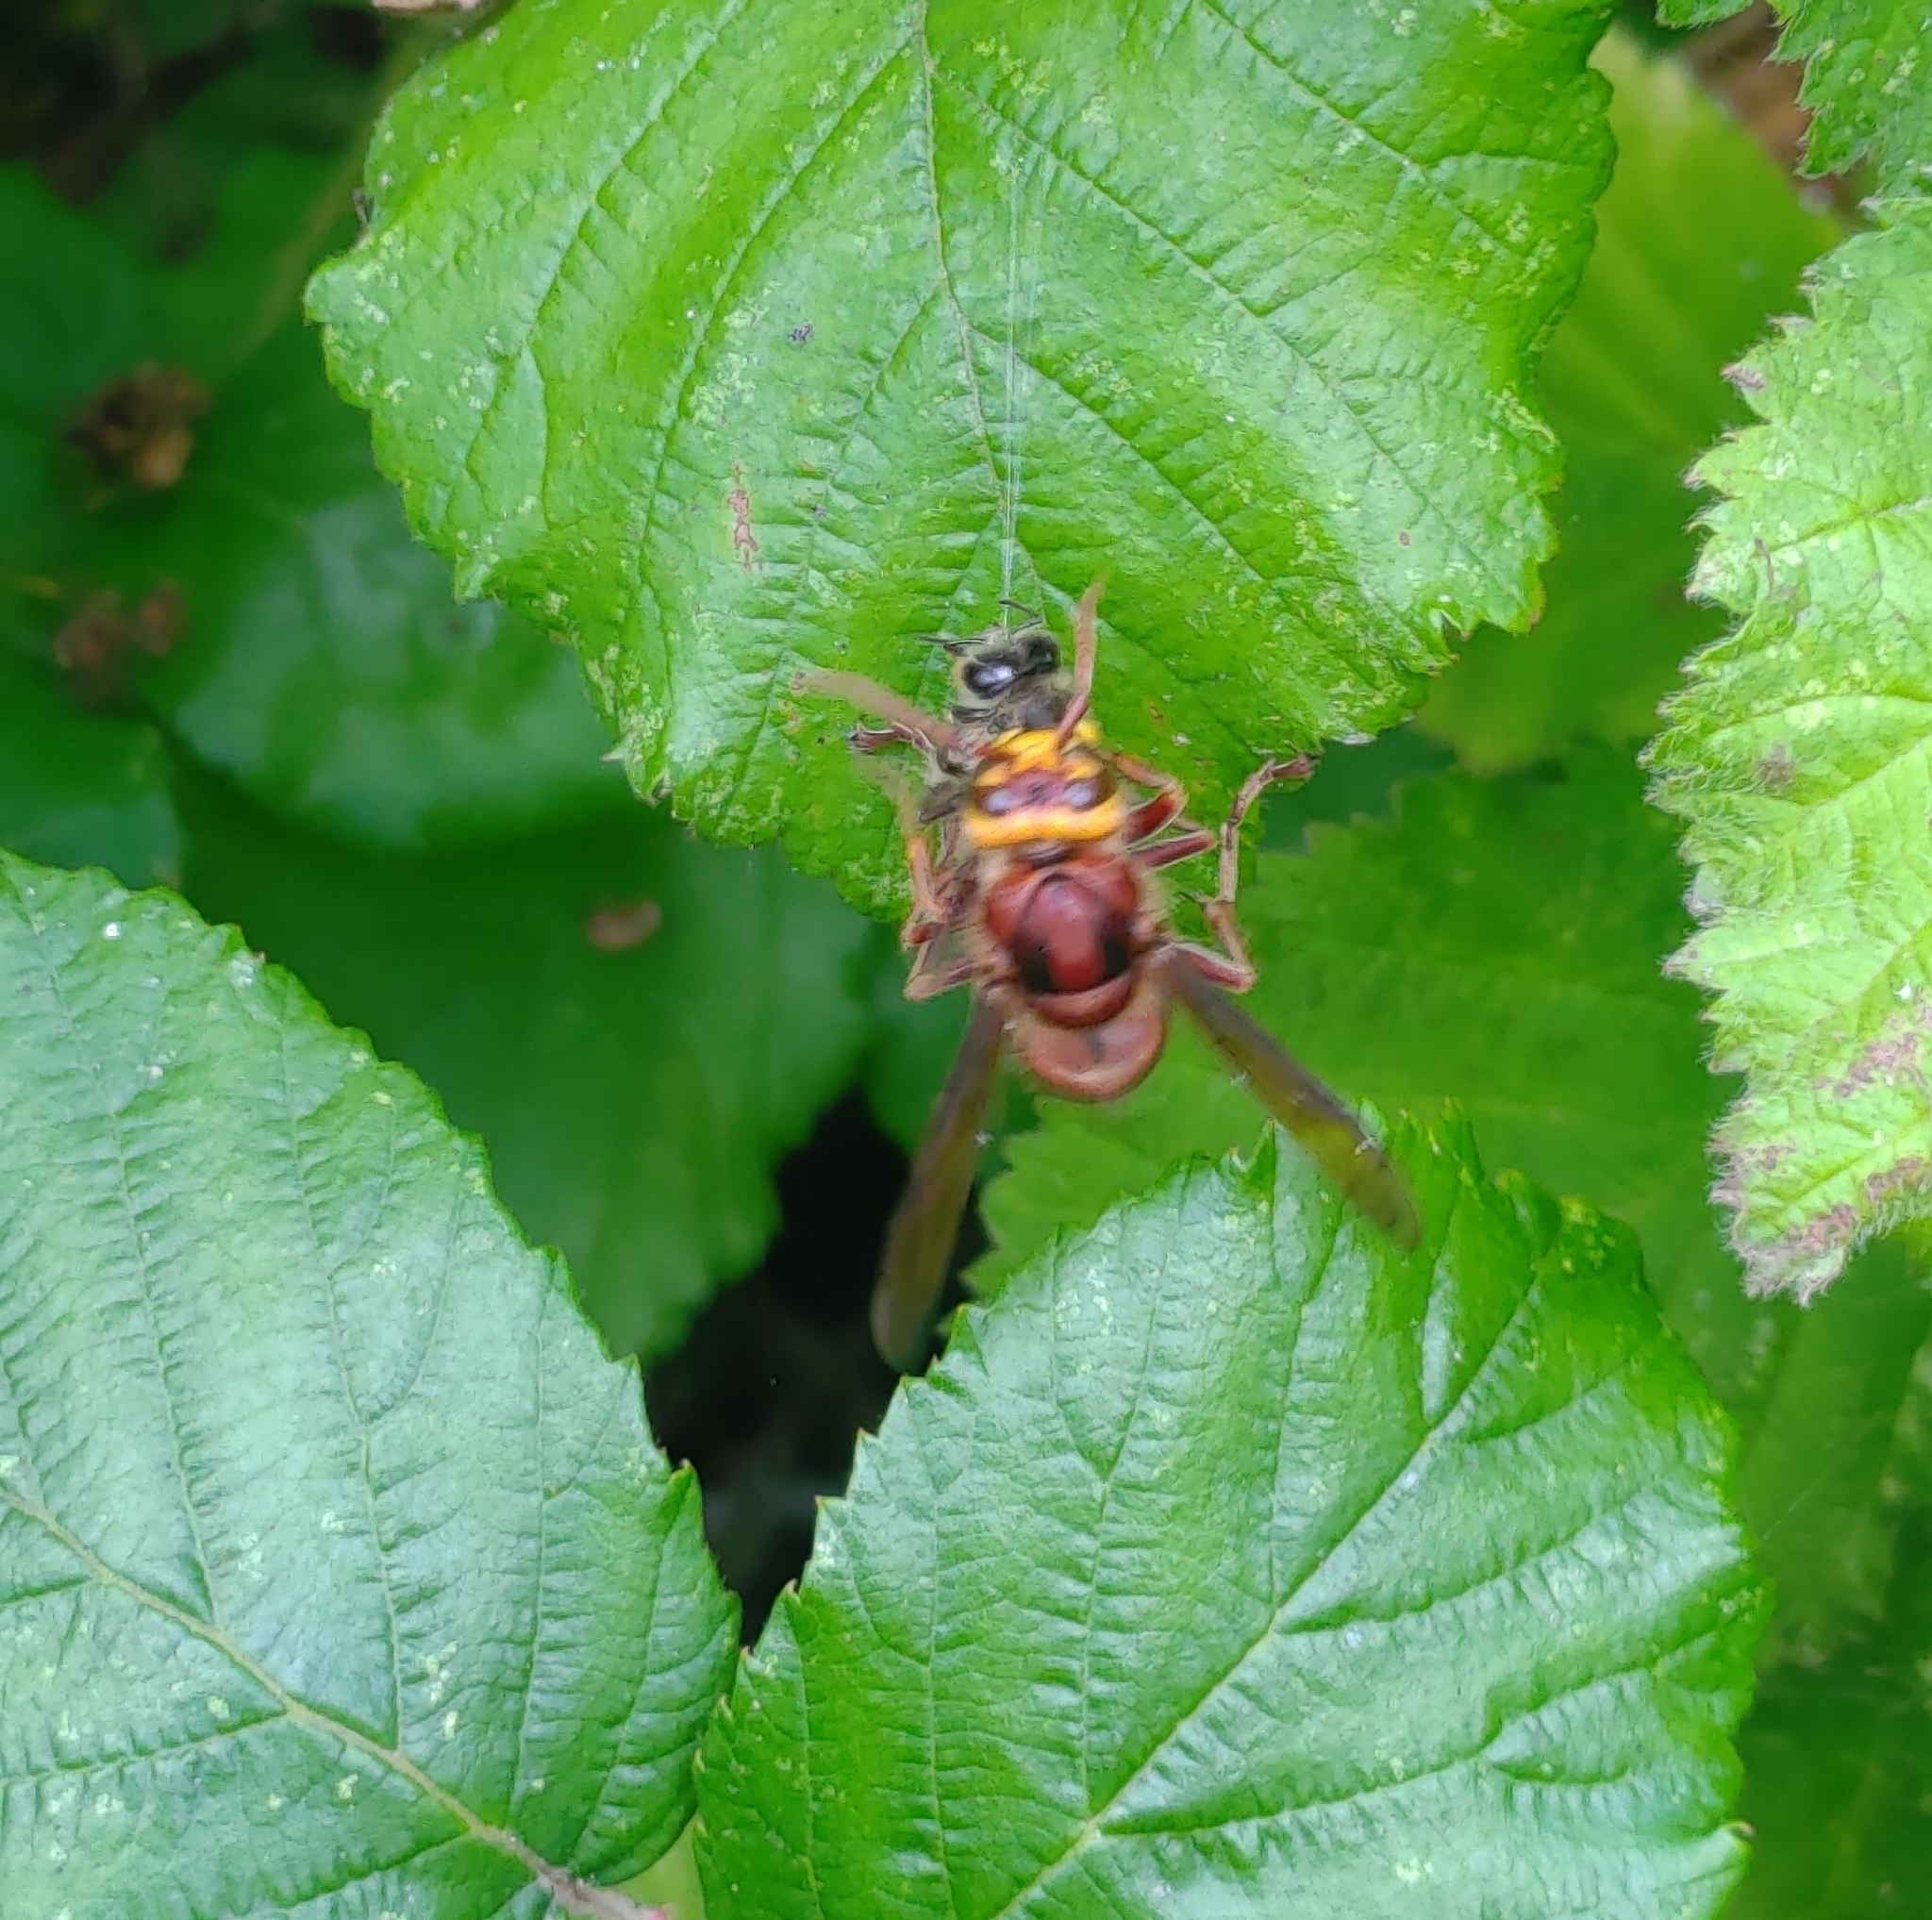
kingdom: Animalia
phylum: Arthropoda
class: Insecta
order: Hymenoptera
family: Vespidae
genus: Vespa
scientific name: Vespa crabro
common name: Hornet
